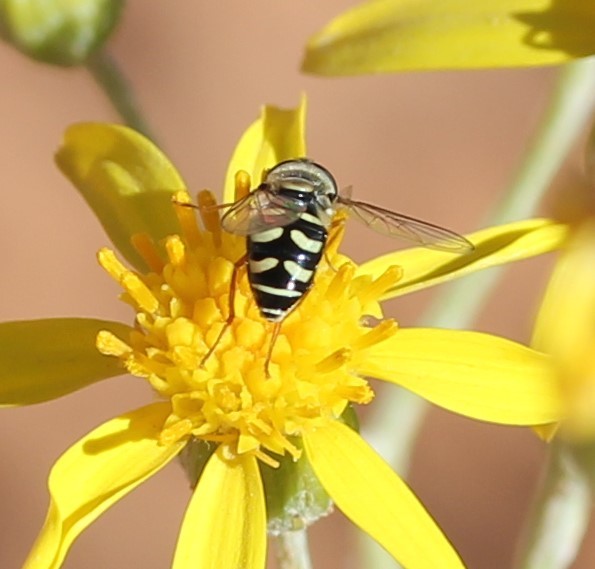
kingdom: Animalia
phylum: Arthropoda
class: Insecta
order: Diptera
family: Syrphidae
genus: Eupeodes
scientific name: Eupeodes volucris
